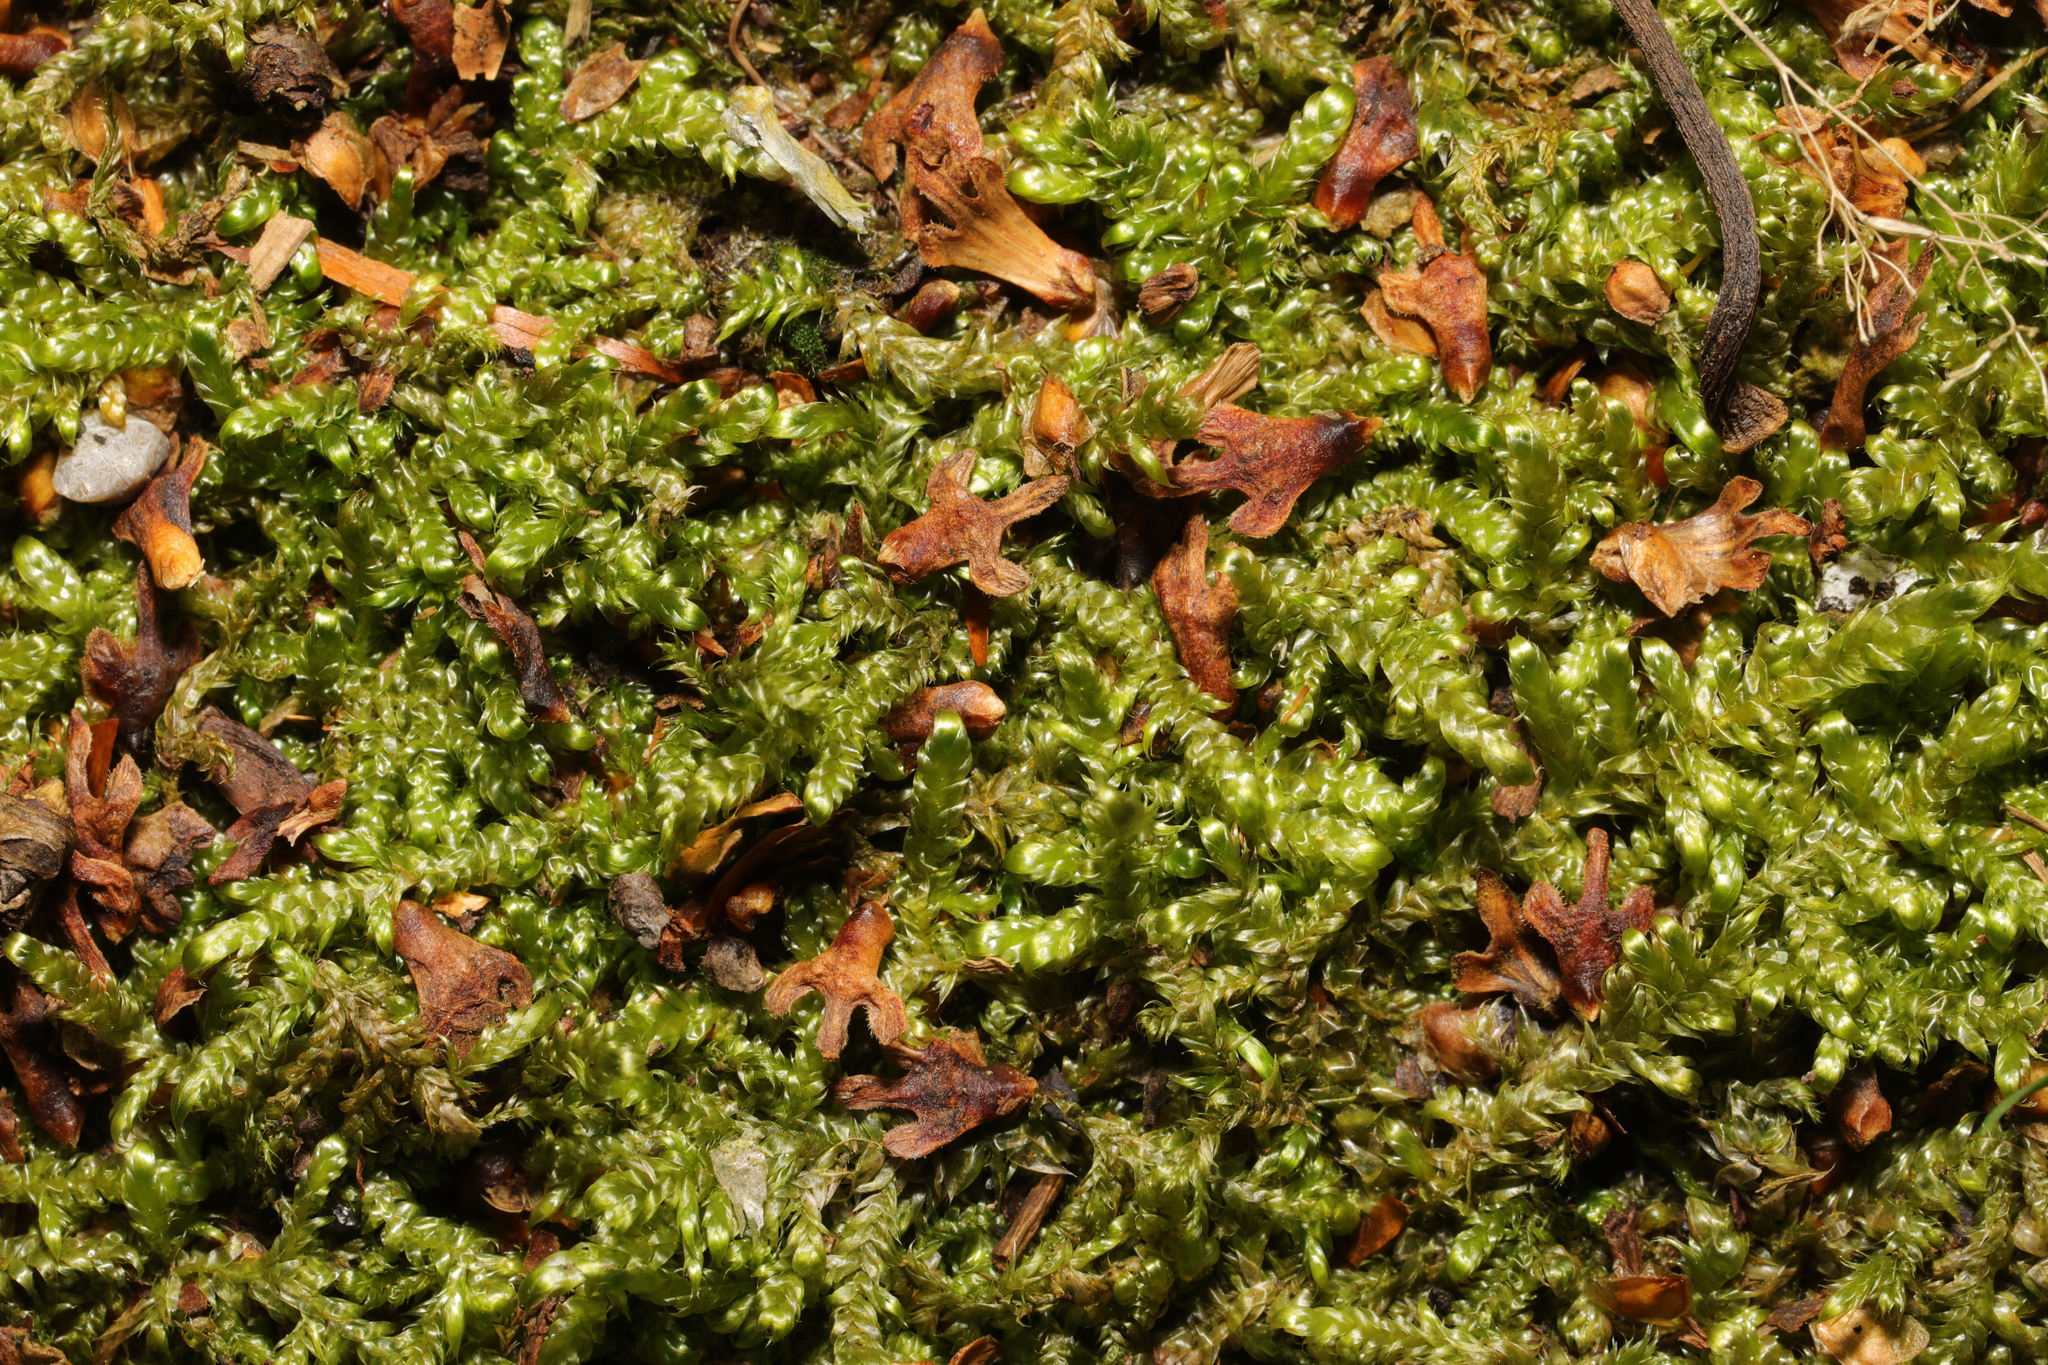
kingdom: Plantae
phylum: Bryophyta
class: Bryopsida
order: Hypnales
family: Hypnaceae
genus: Hypnum
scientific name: Hypnum cupressiforme
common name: Cypress-leaved plait-moss
